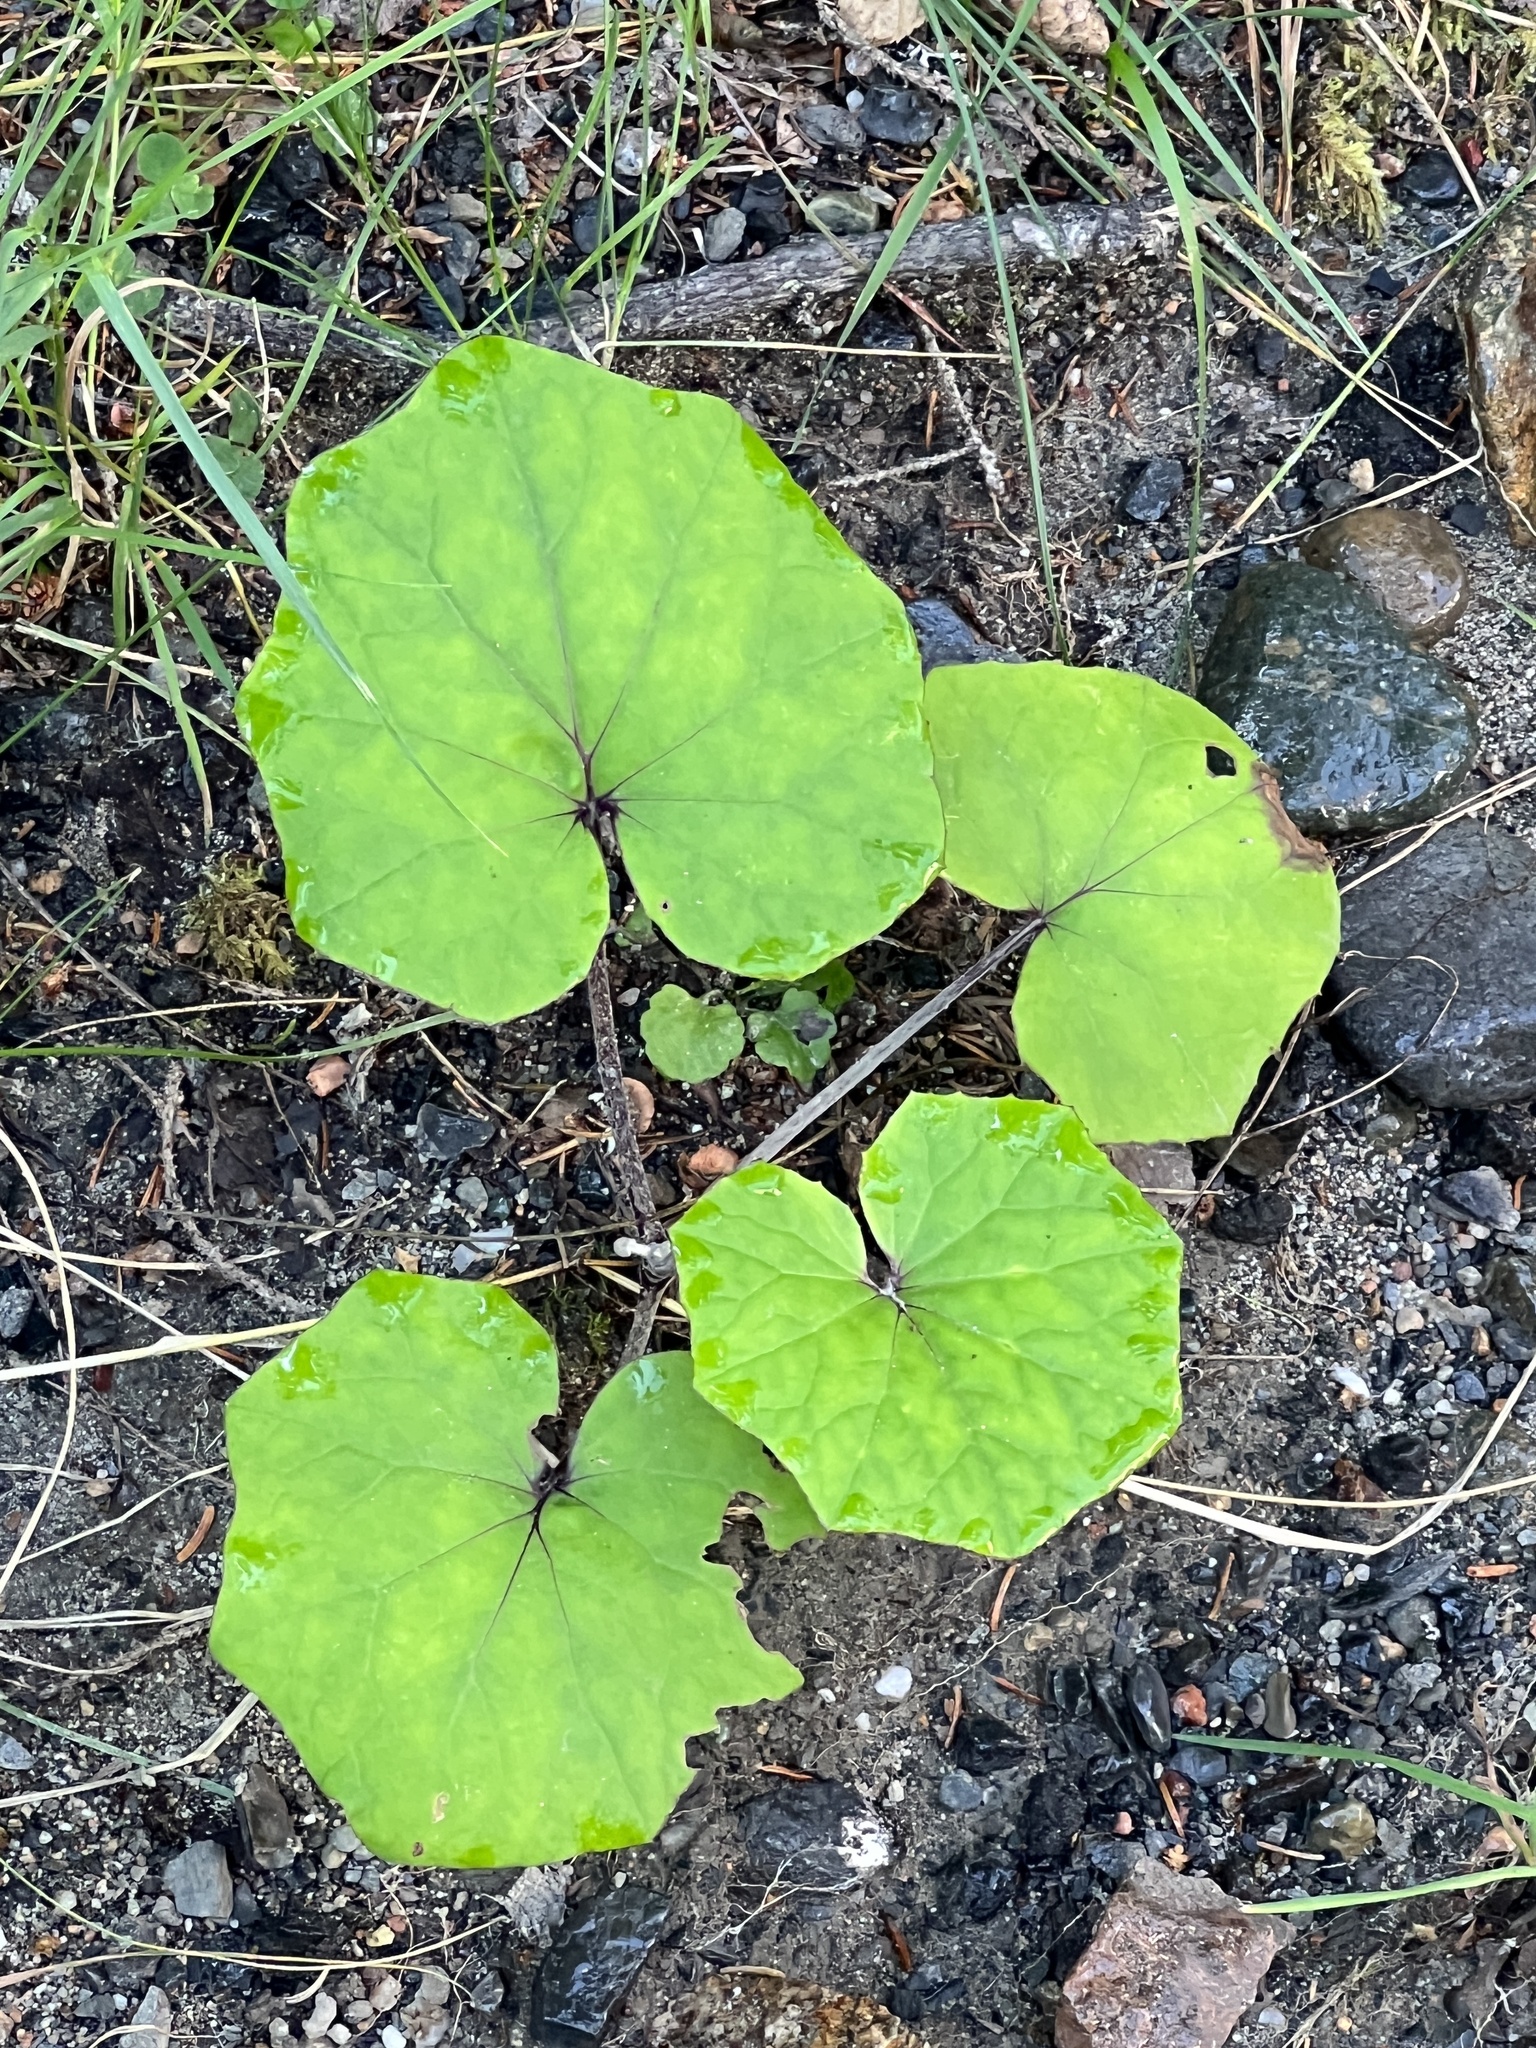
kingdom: Plantae
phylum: Tracheophyta
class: Magnoliopsida
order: Asterales
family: Asteraceae
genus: Tussilago
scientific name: Tussilago farfara
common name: Coltsfoot
